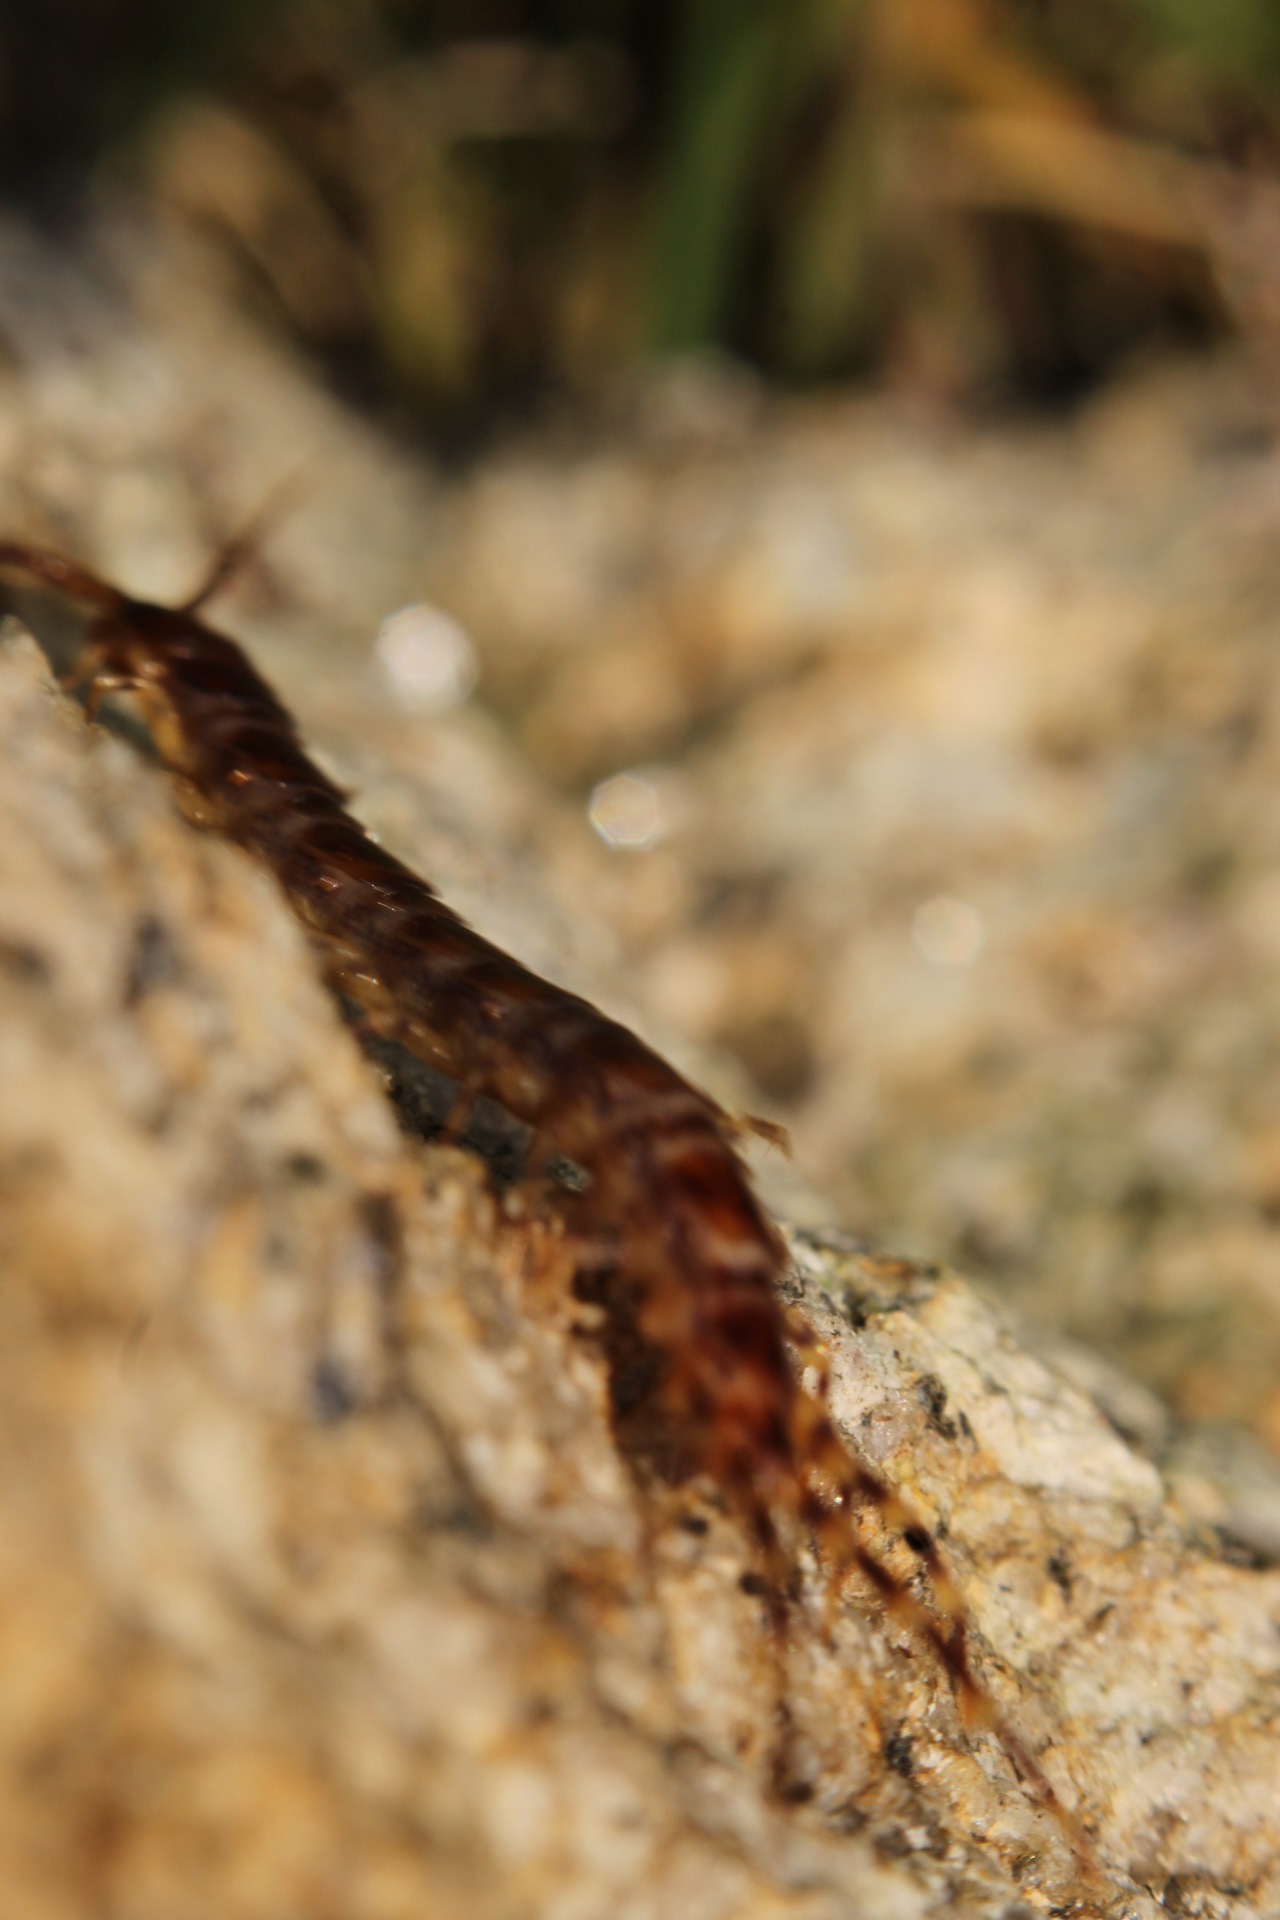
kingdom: Animalia
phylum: Arthropoda
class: Chilopoda
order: Lithobiomorpha
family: Lithobiidae
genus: Lithobius
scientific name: Lithobius variegatus
